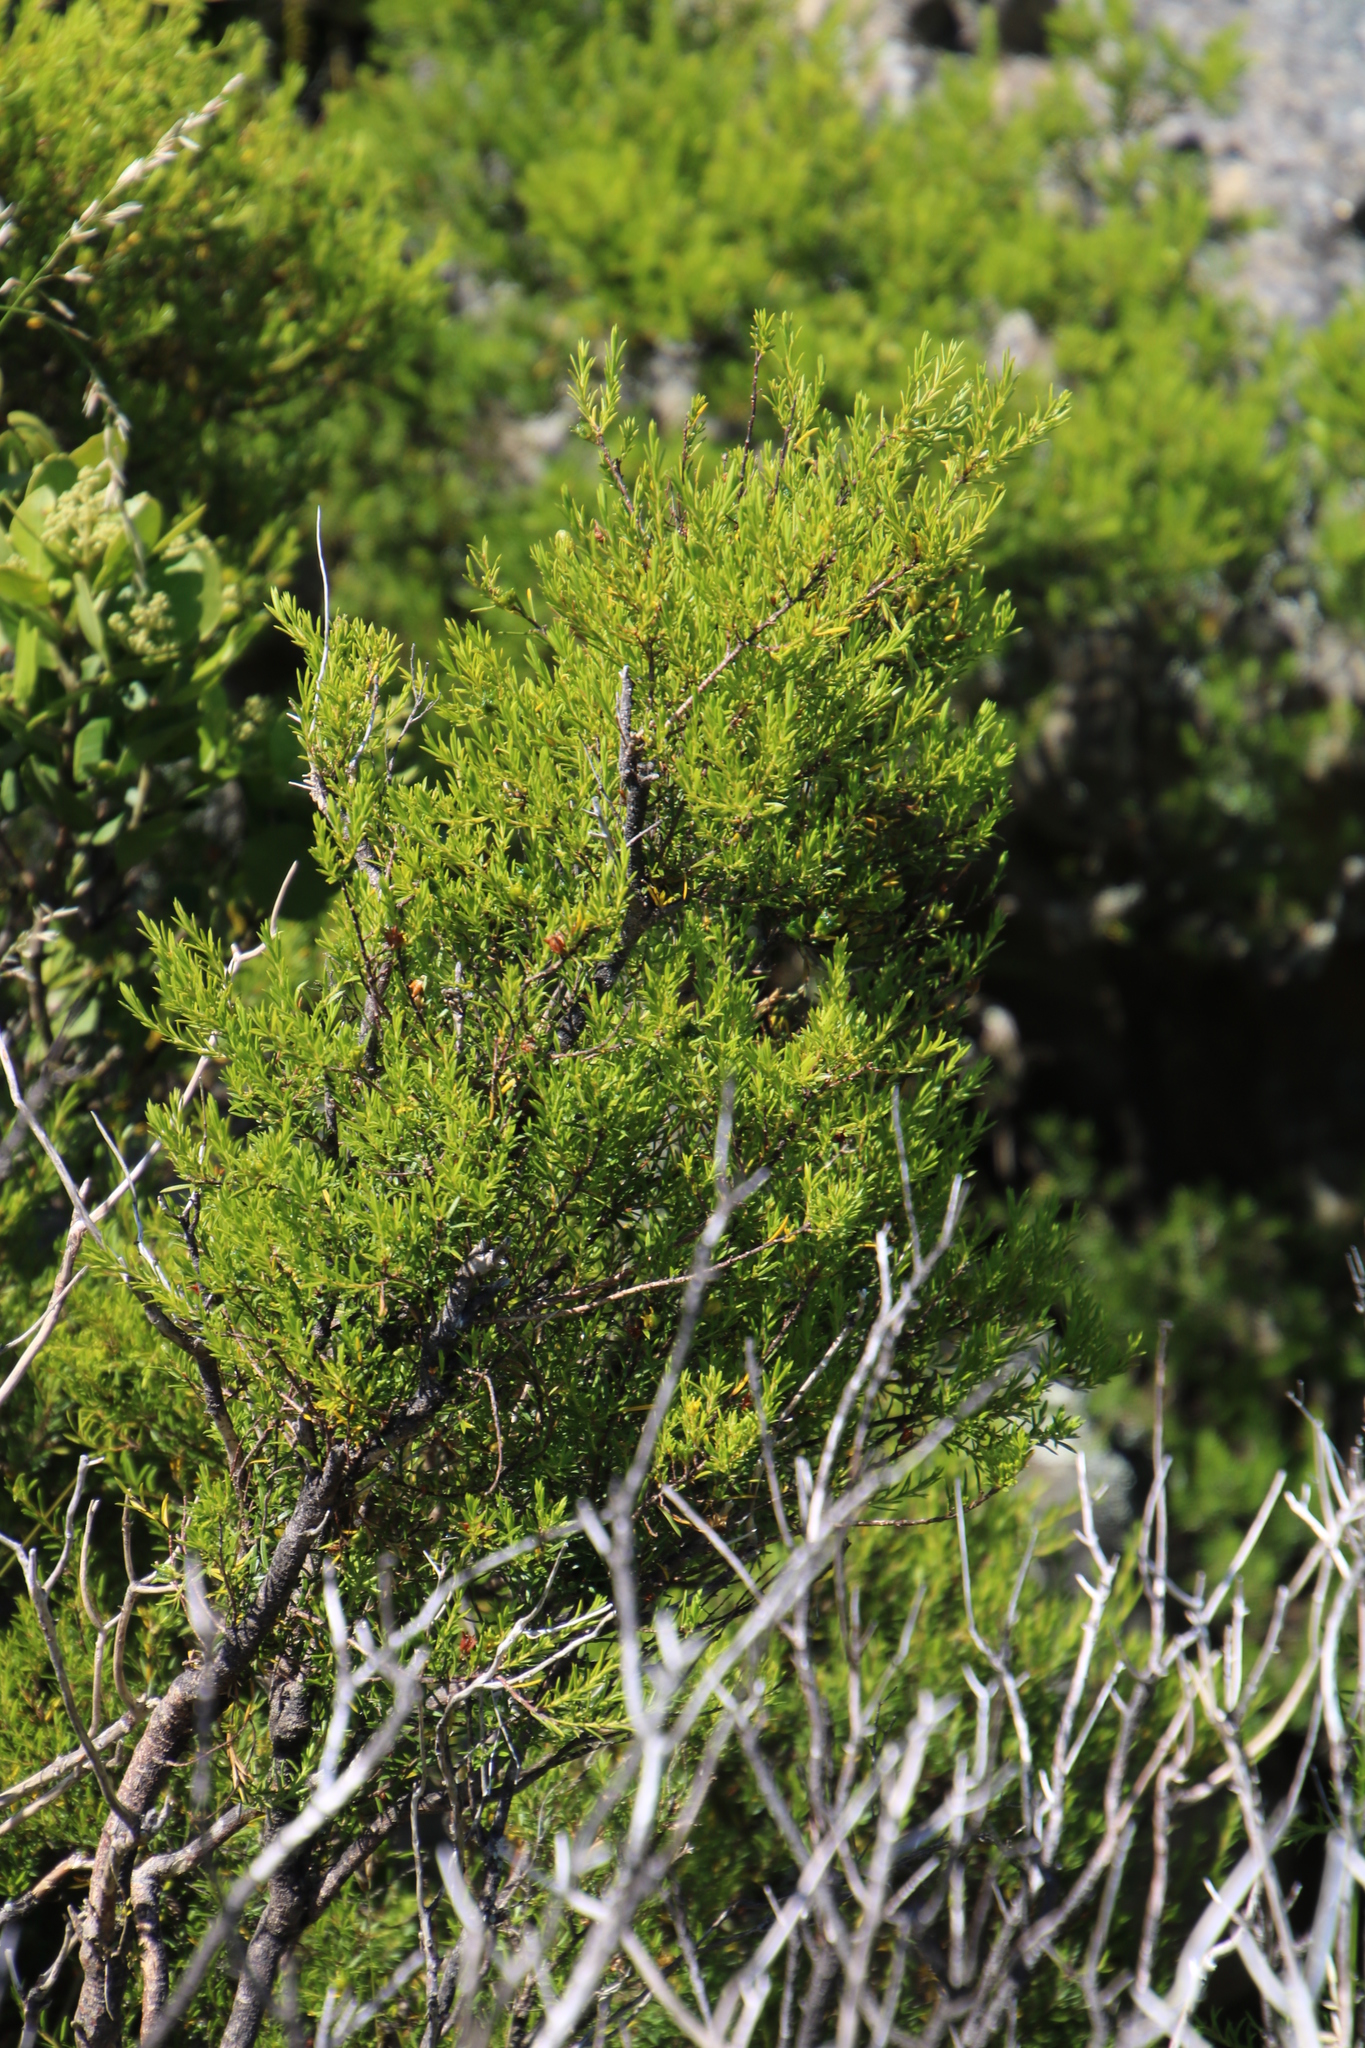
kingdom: Plantae
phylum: Tracheophyta
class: Magnoliopsida
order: Sapindales
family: Rutaceae
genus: Coleonema
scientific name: Coleonema album
